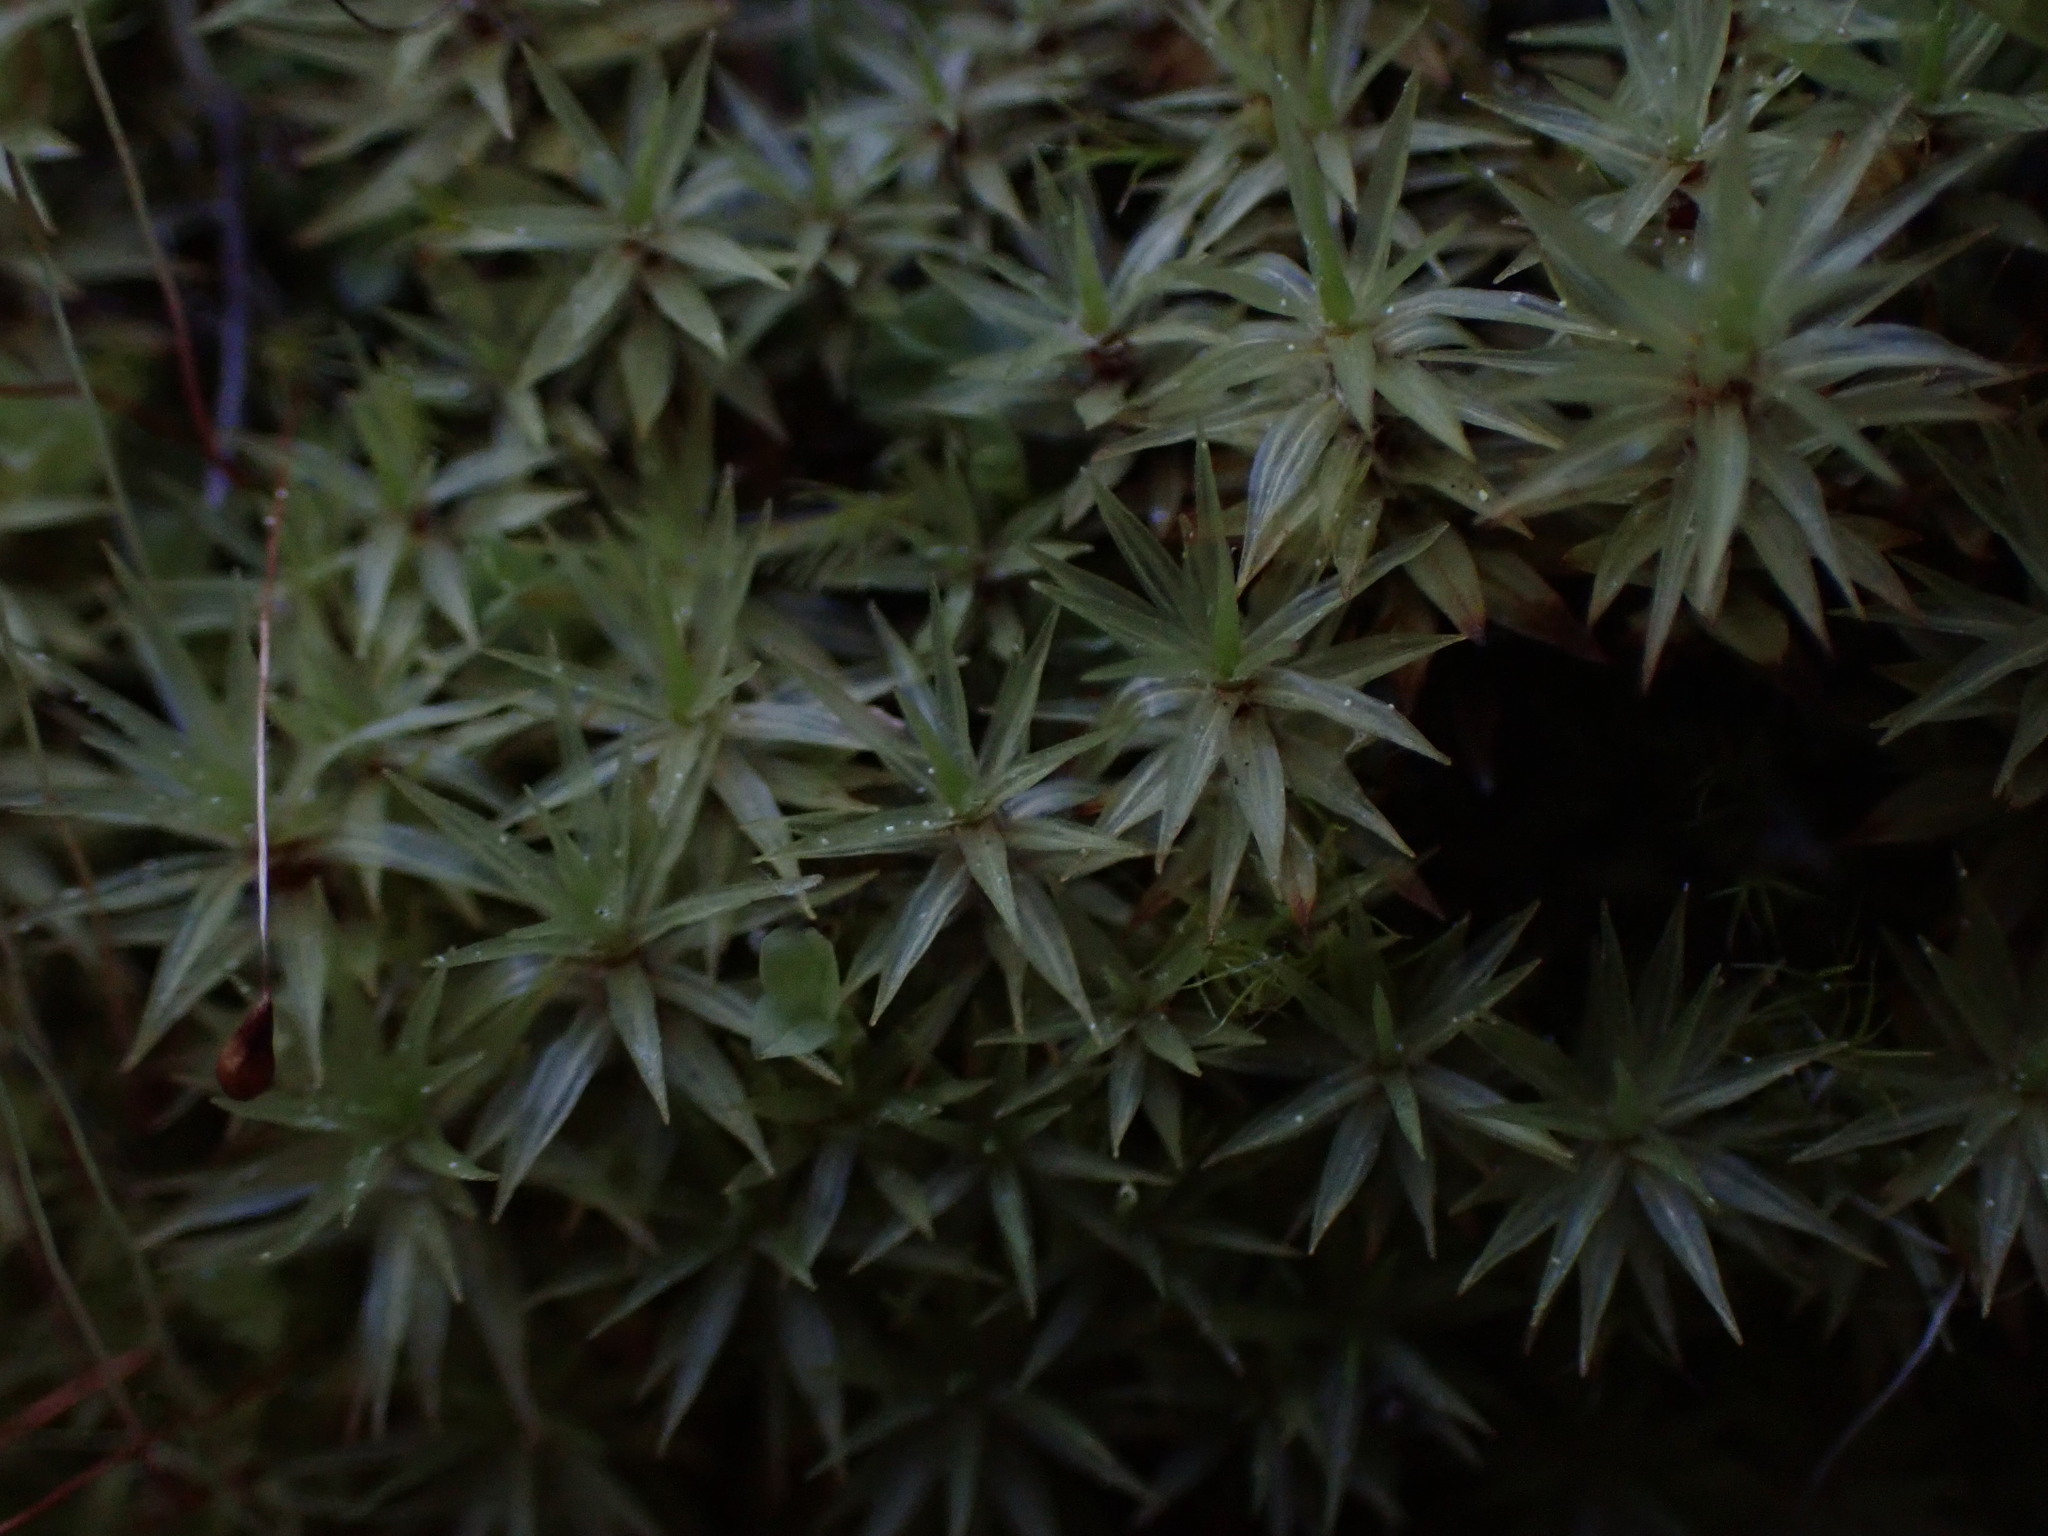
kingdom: Plantae
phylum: Bryophyta
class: Bryopsida
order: Timmiales
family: Timmiaceae
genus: Timmia
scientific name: Timmia austriaca
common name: Austrian timmia
